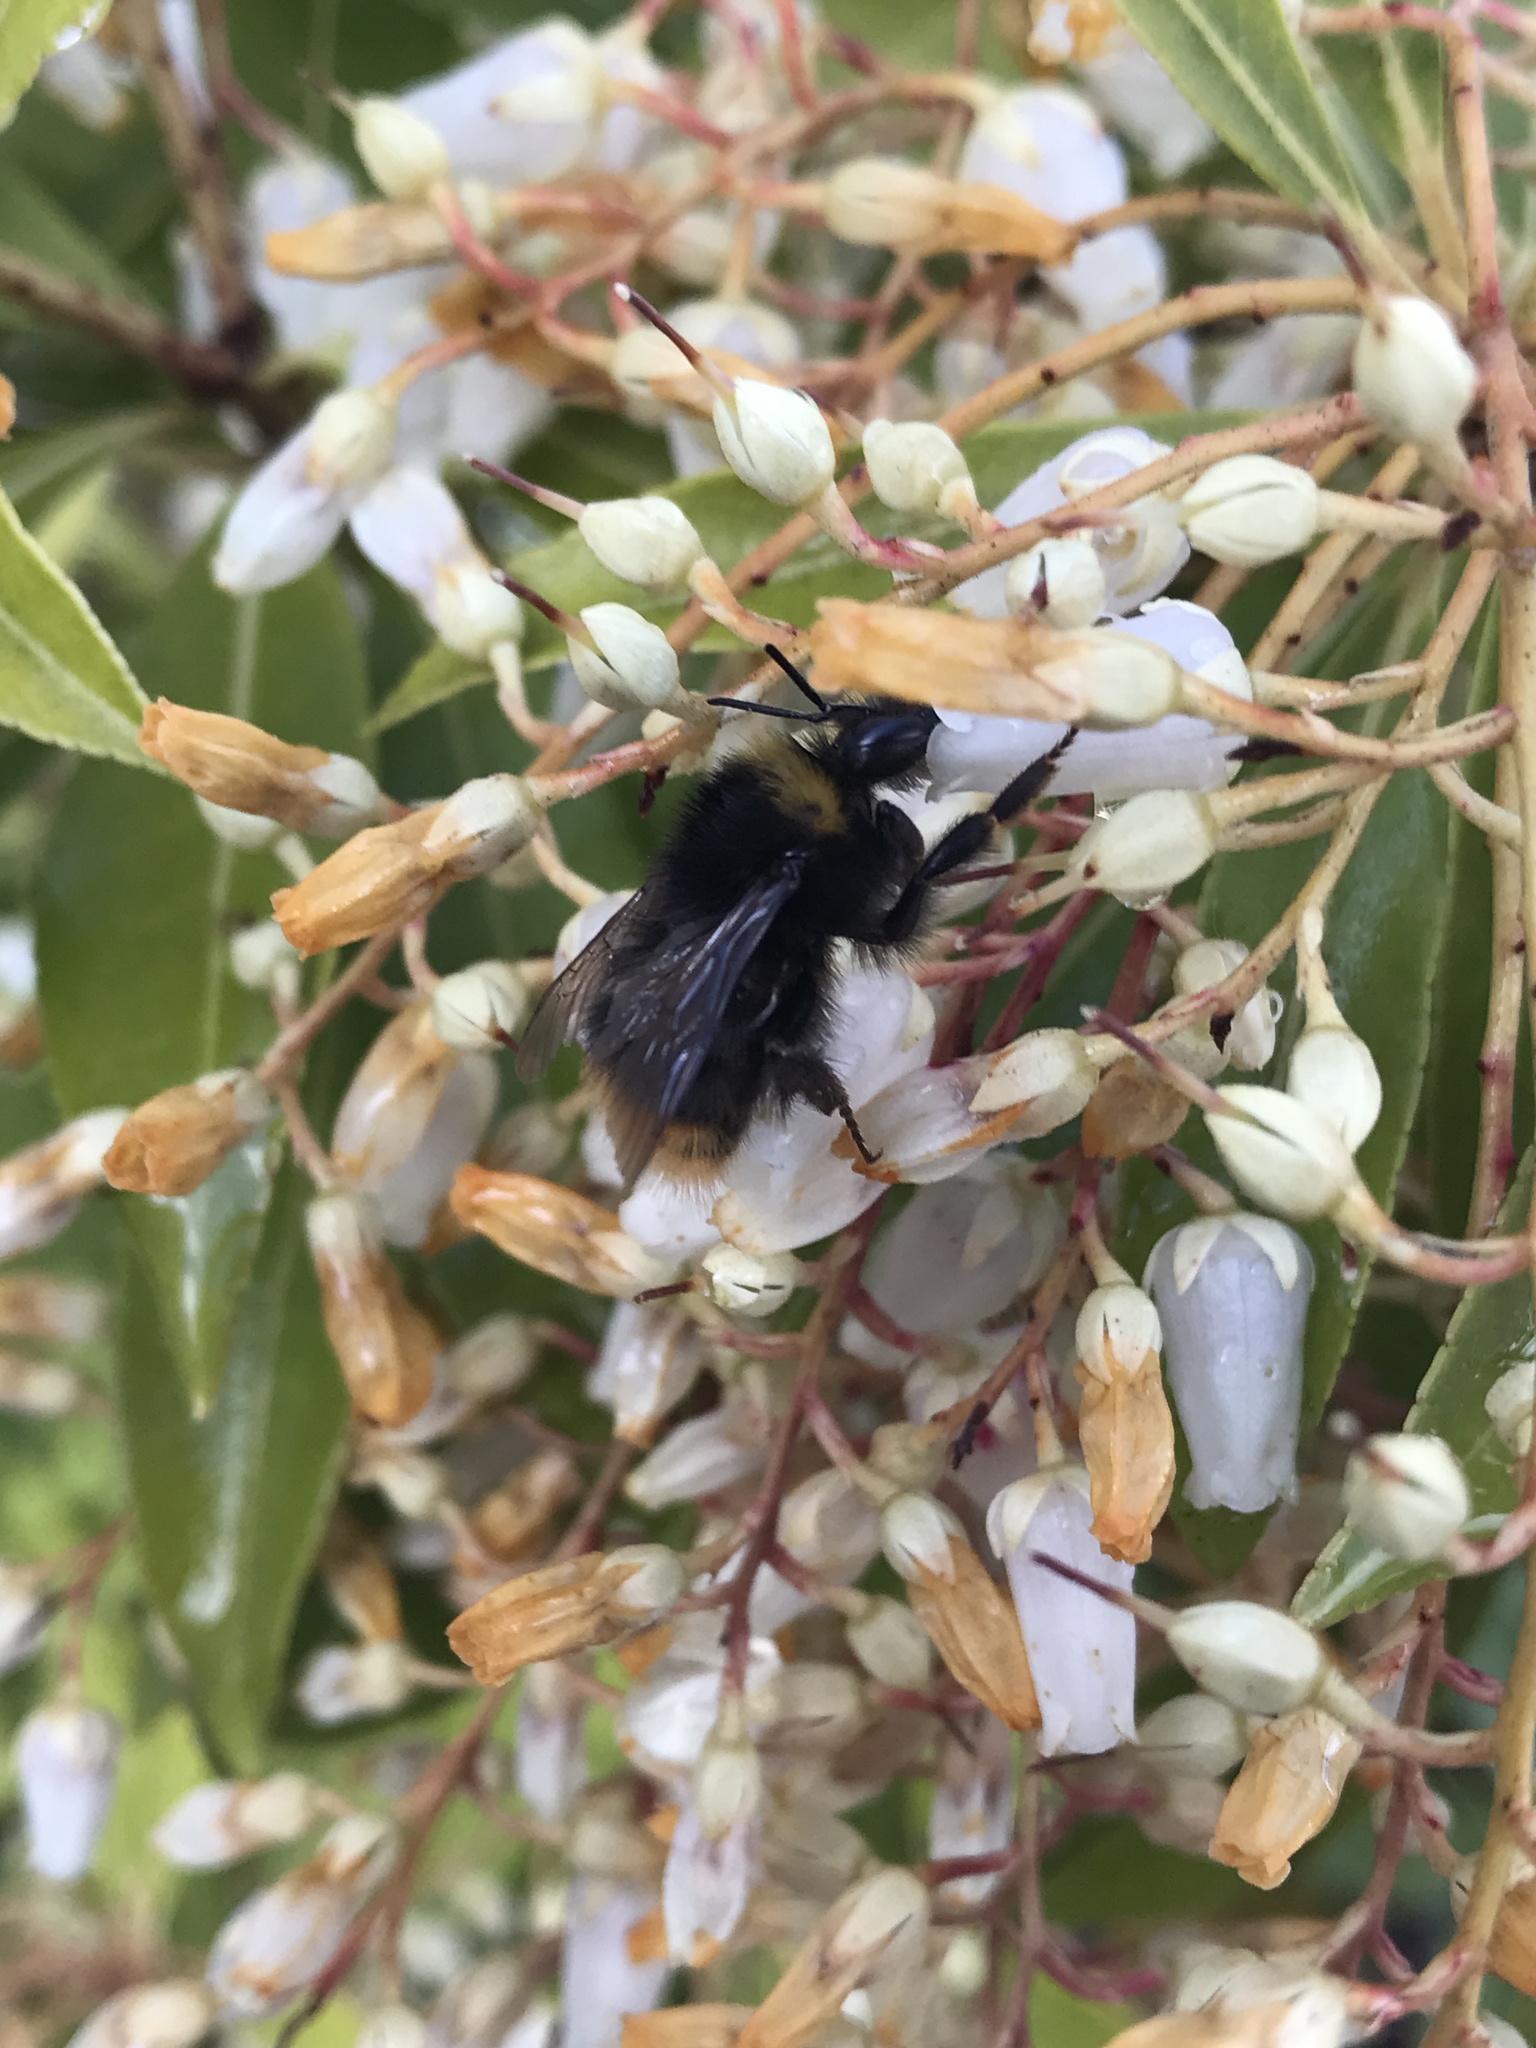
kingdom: Animalia
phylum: Arthropoda
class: Insecta
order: Hymenoptera
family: Apidae
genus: Bombus
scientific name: Bombus pratorum
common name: Early humble-bee
